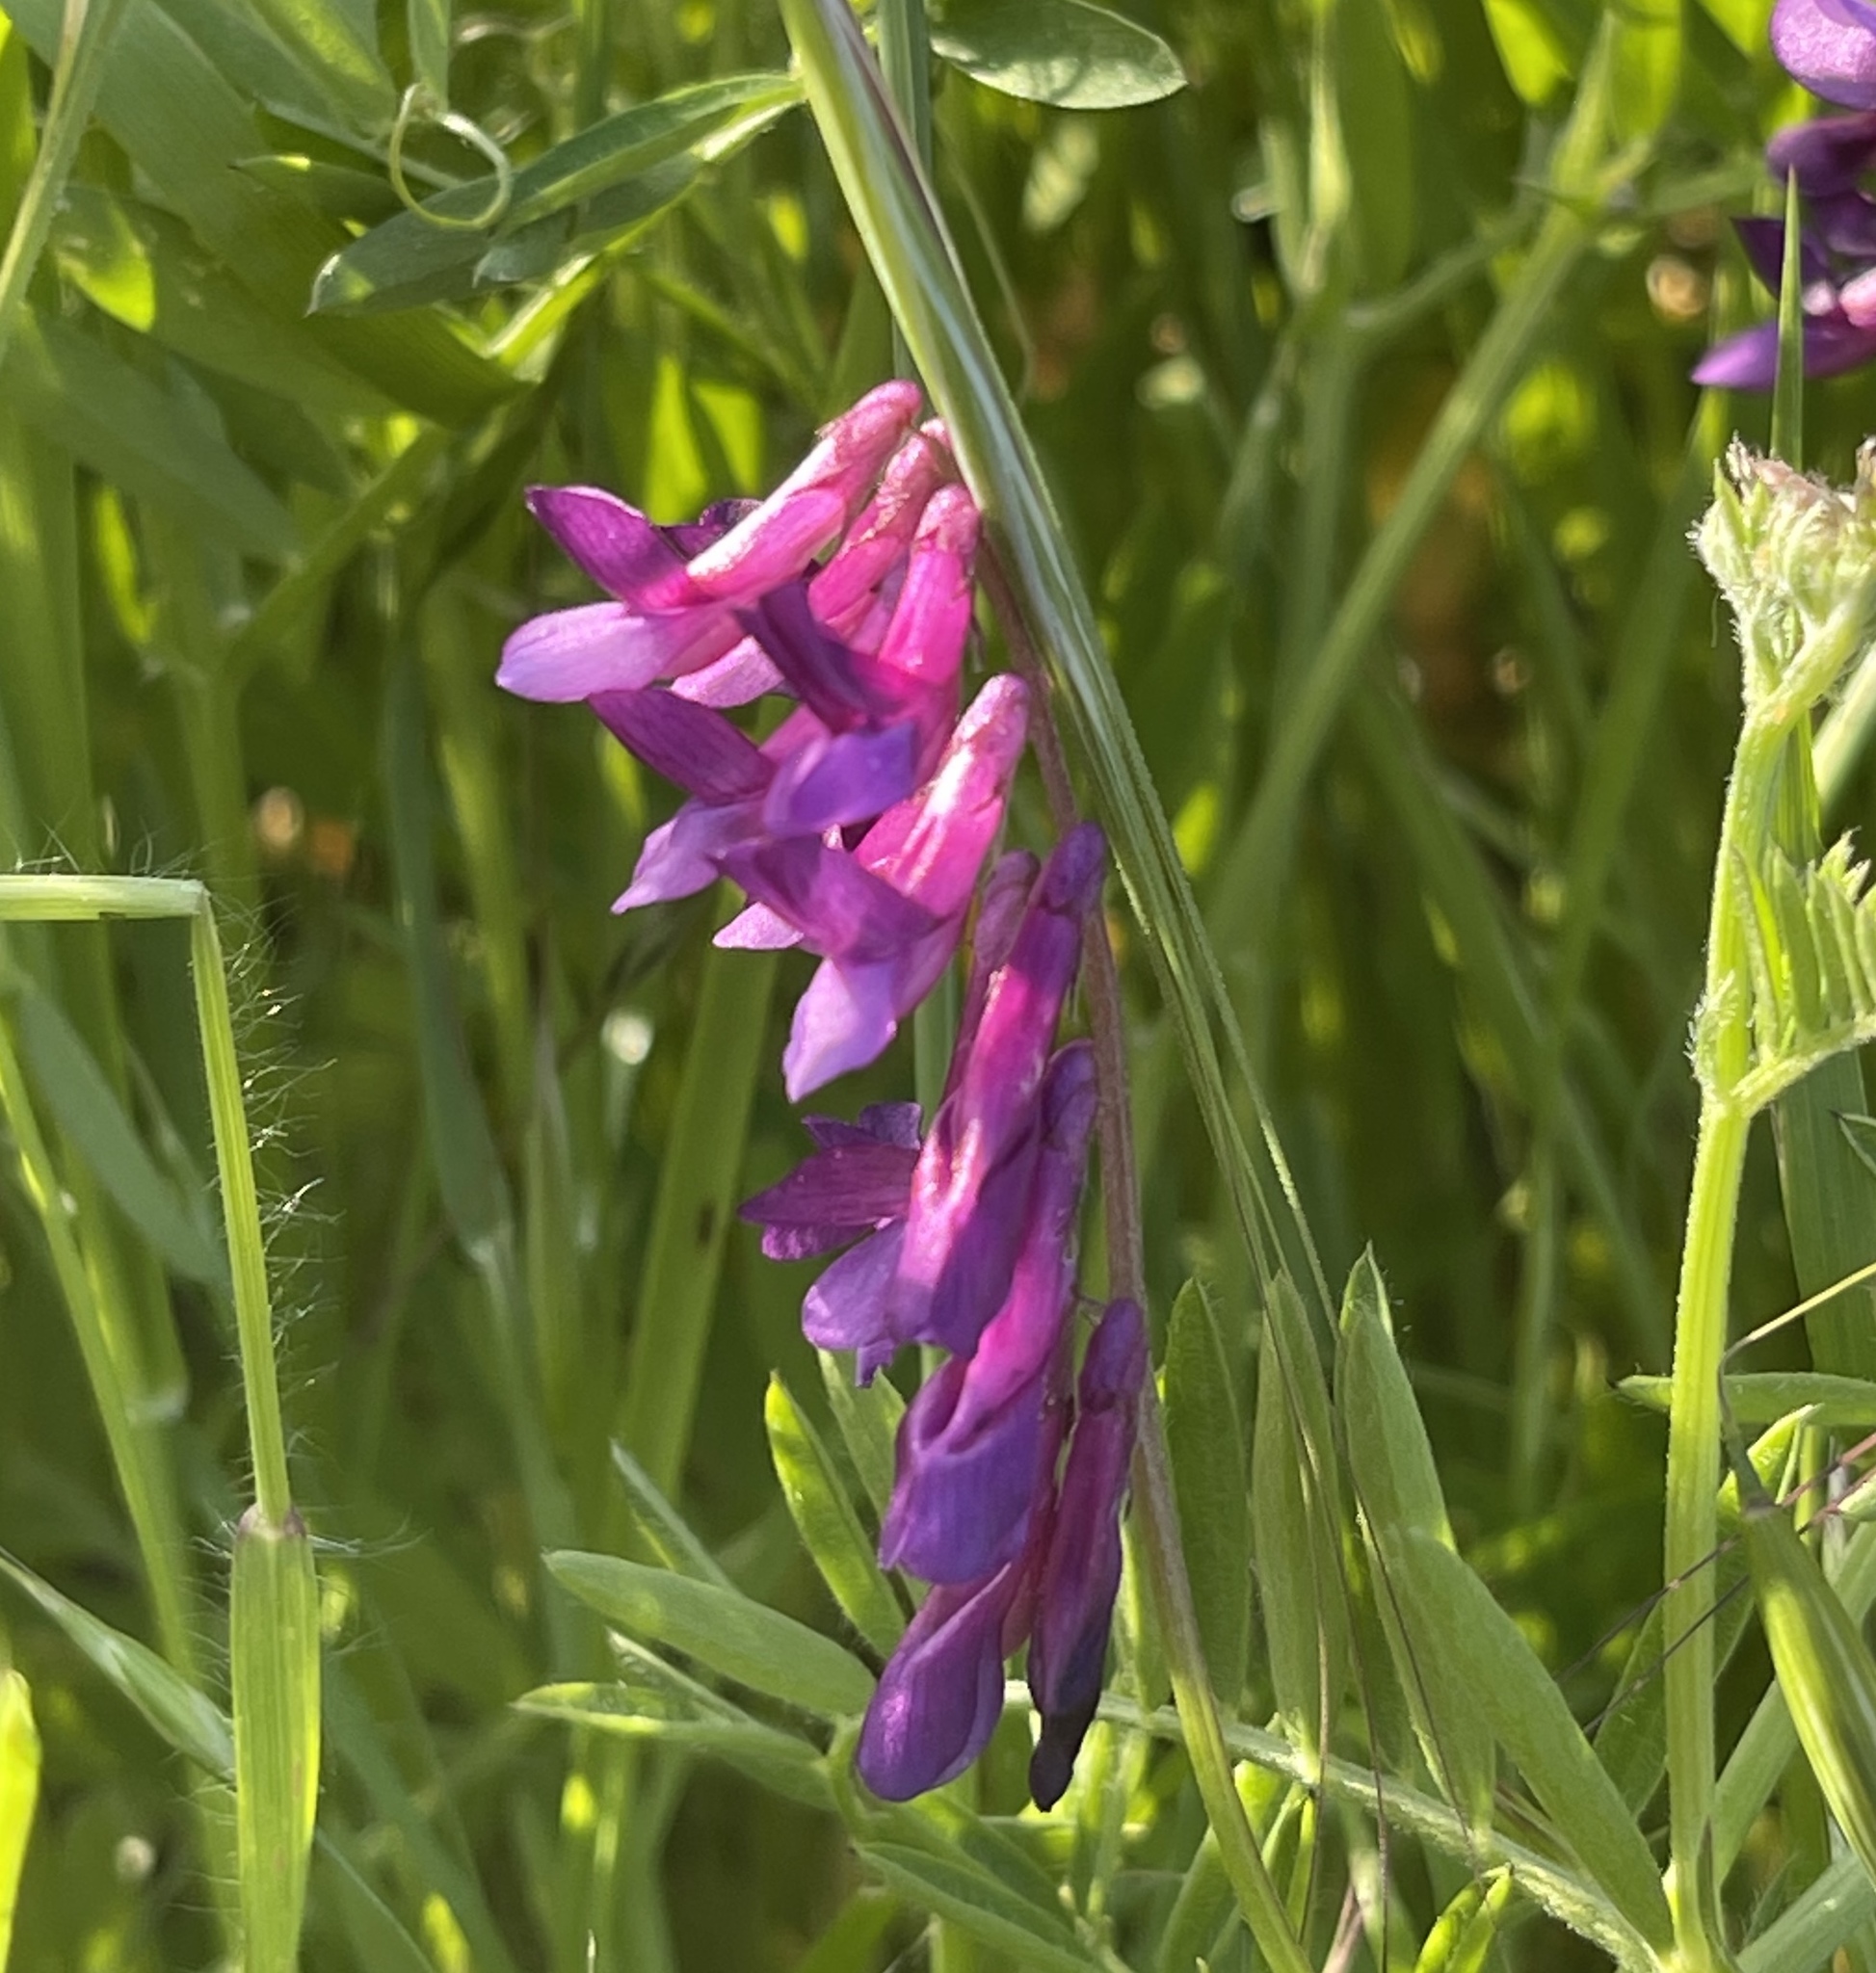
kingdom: Plantae
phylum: Tracheophyta
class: Magnoliopsida
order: Fabales
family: Fabaceae
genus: Vicia
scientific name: Vicia villosa
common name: Fodder vetch
